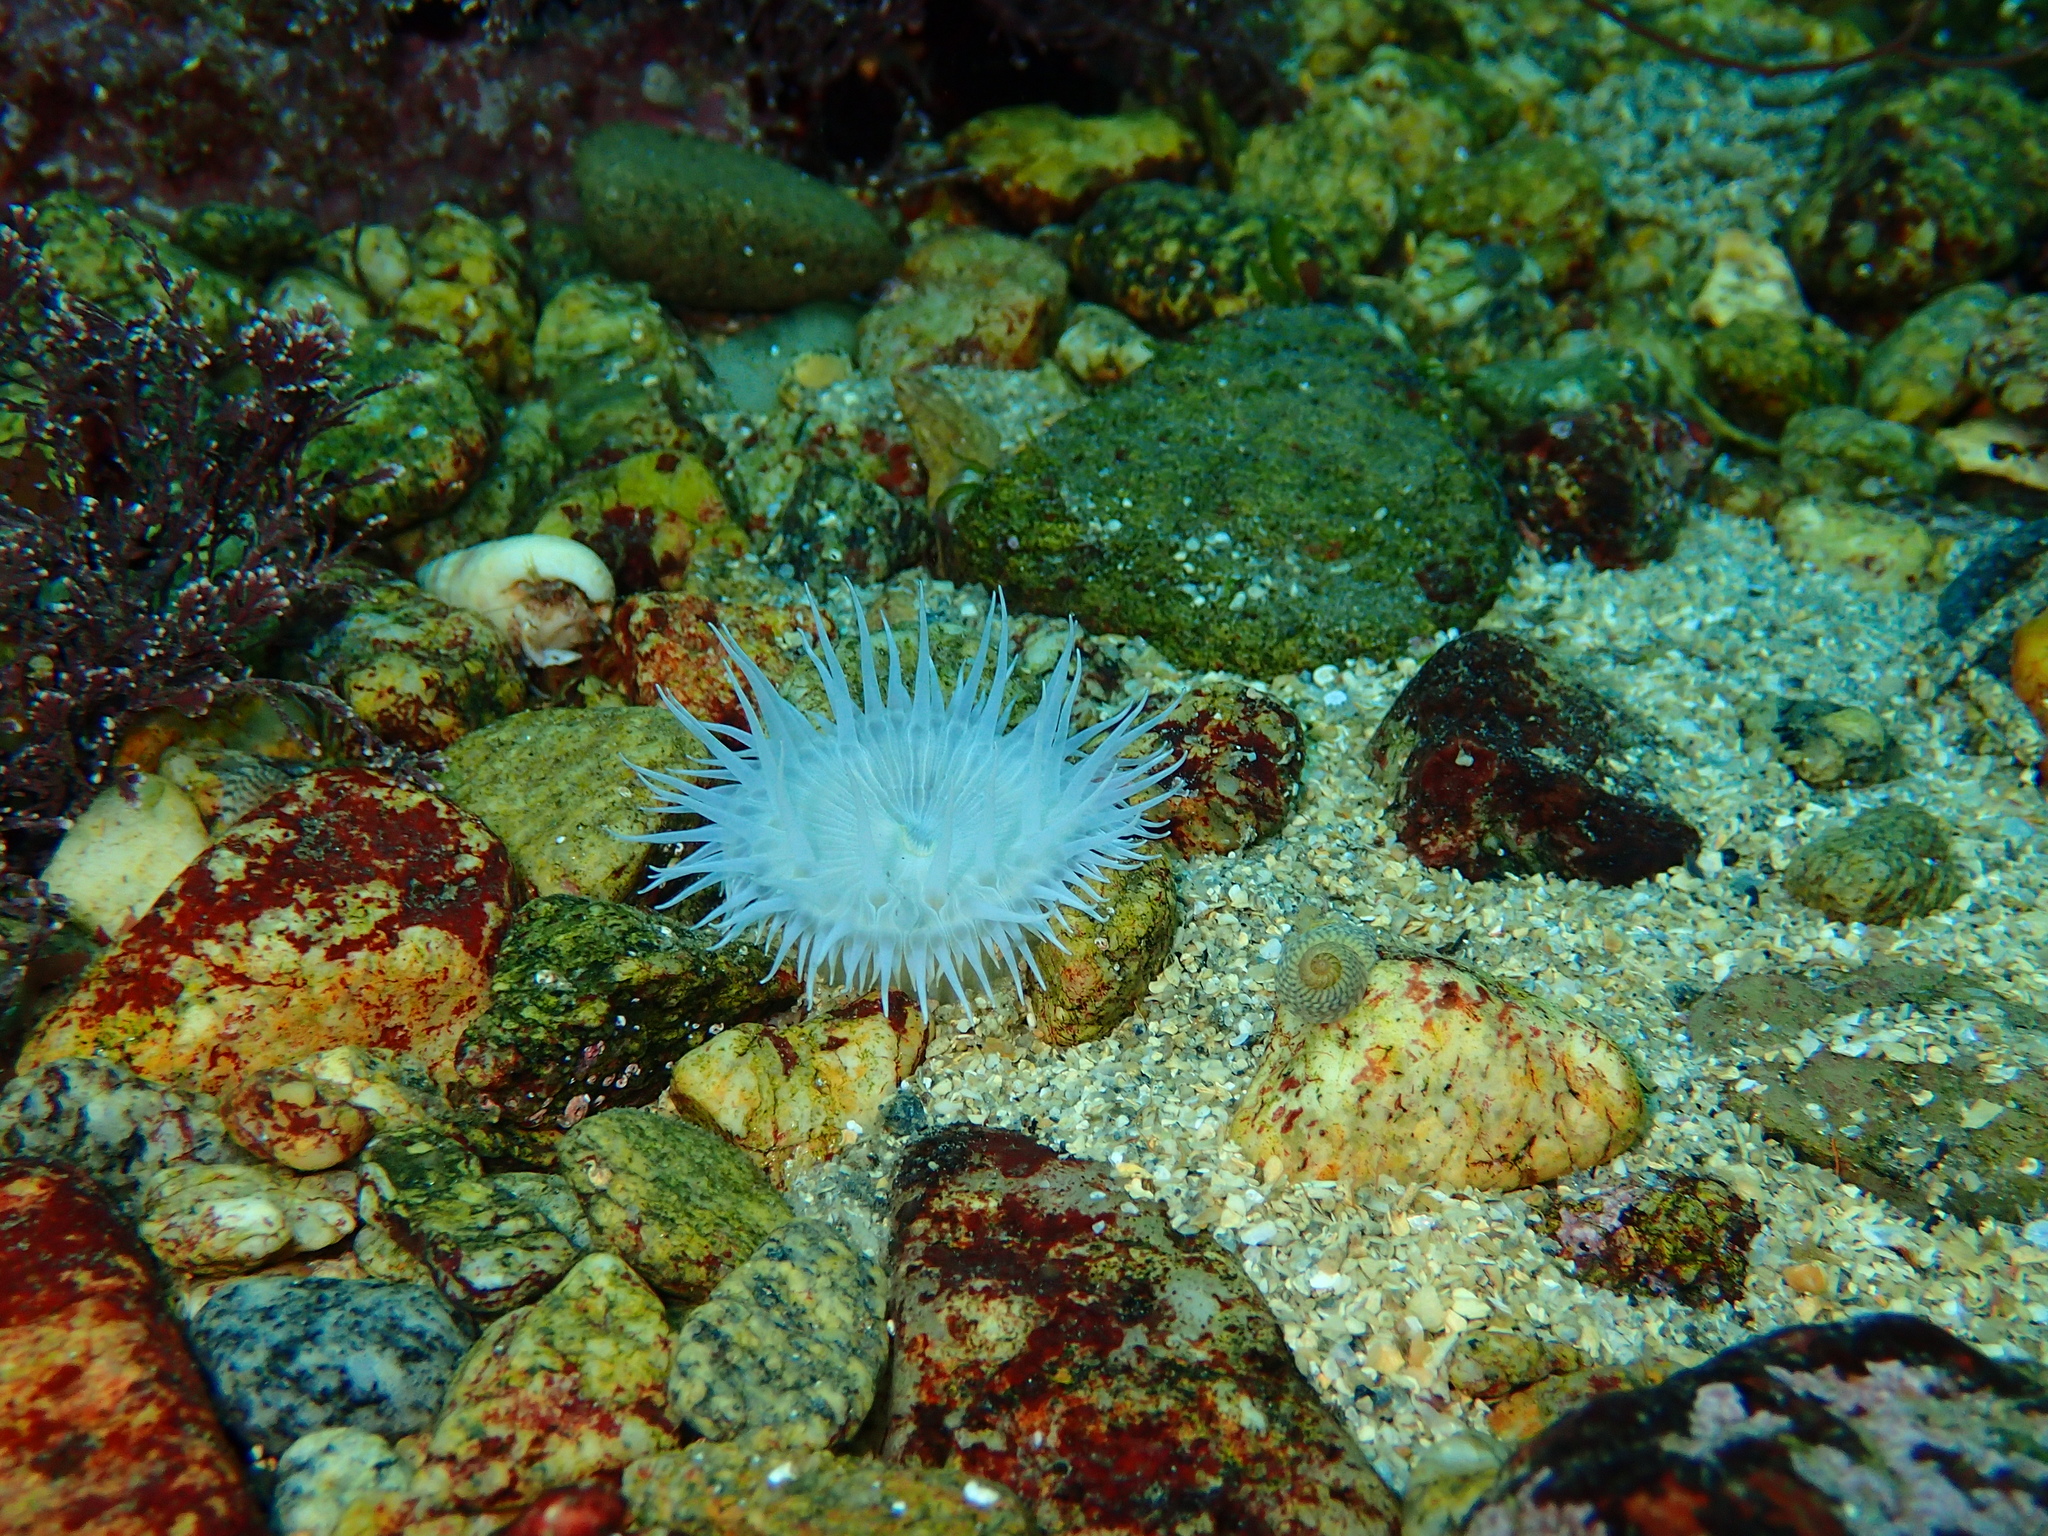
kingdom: Animalia
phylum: Cnidaria
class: Anthozoa
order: Actiniaria
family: Sagartiidae
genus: Cylista
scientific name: Cylista elegans
